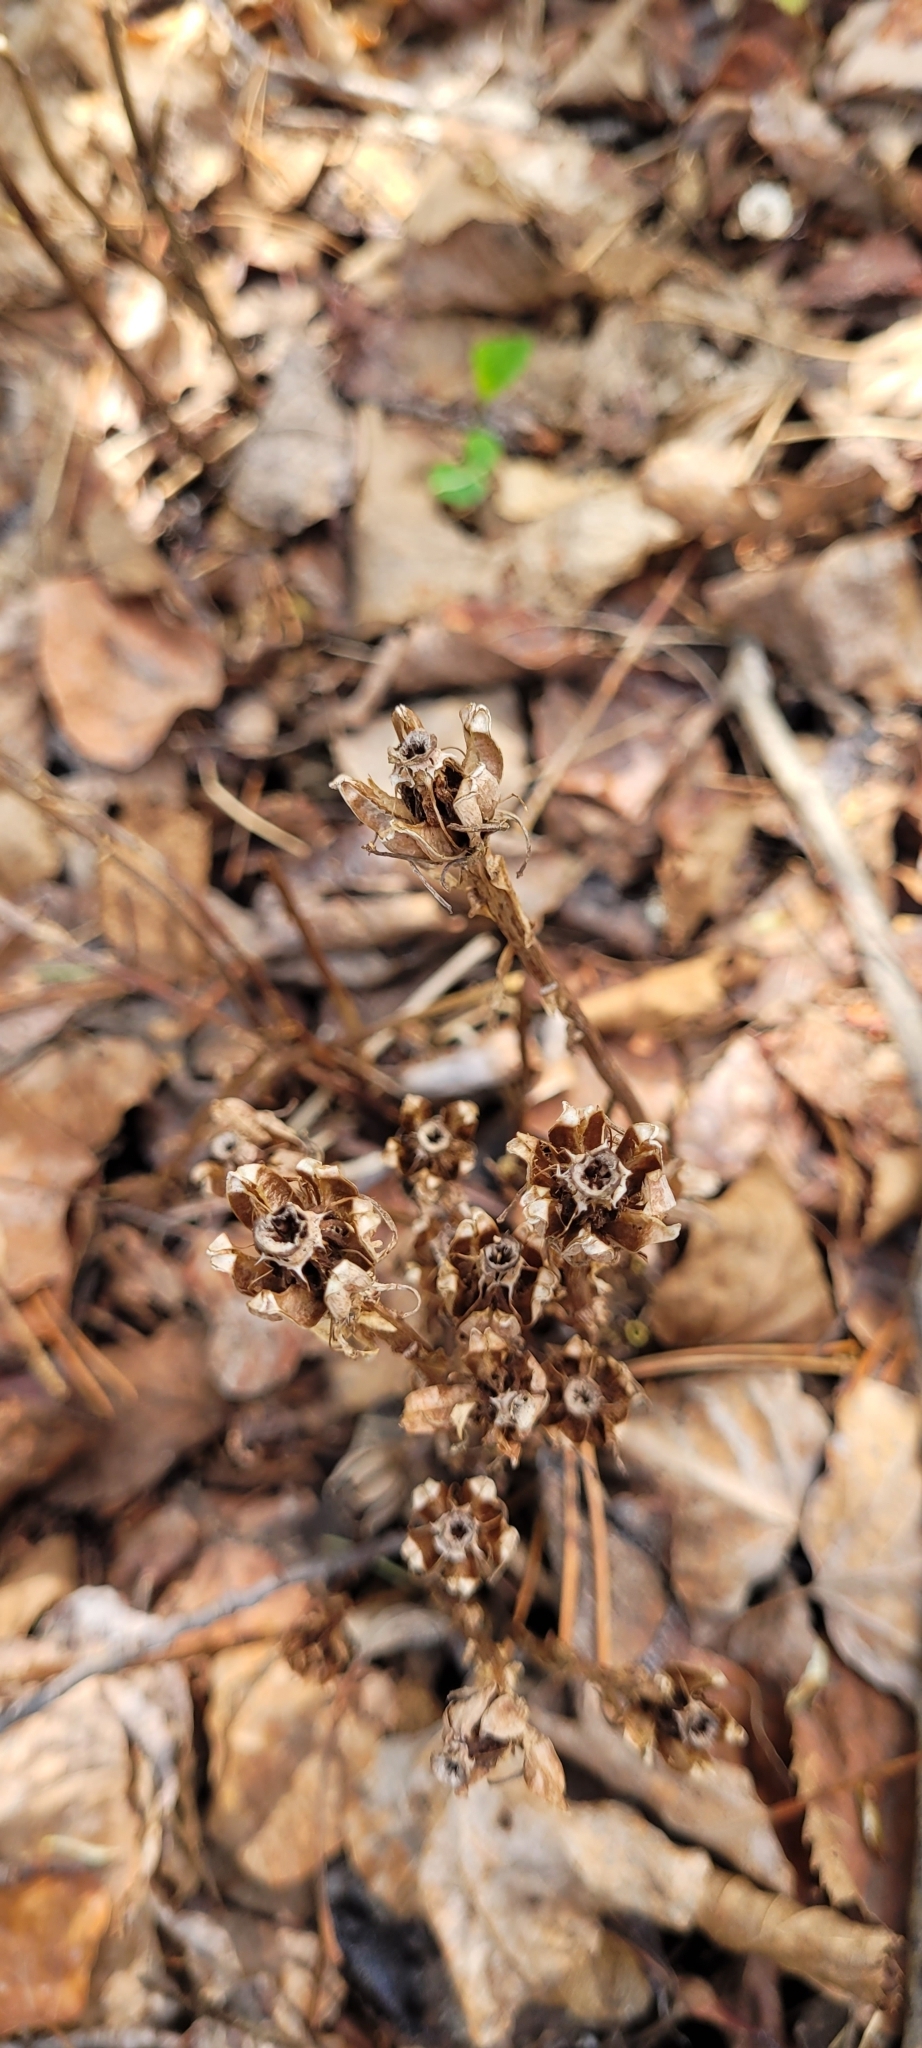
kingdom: Plantae
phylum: Tracheophyta
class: Magnoliopsida
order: Ericales
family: Ericaceae
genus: Monotropa
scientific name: Monotropa uniflora
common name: Convulsion root
